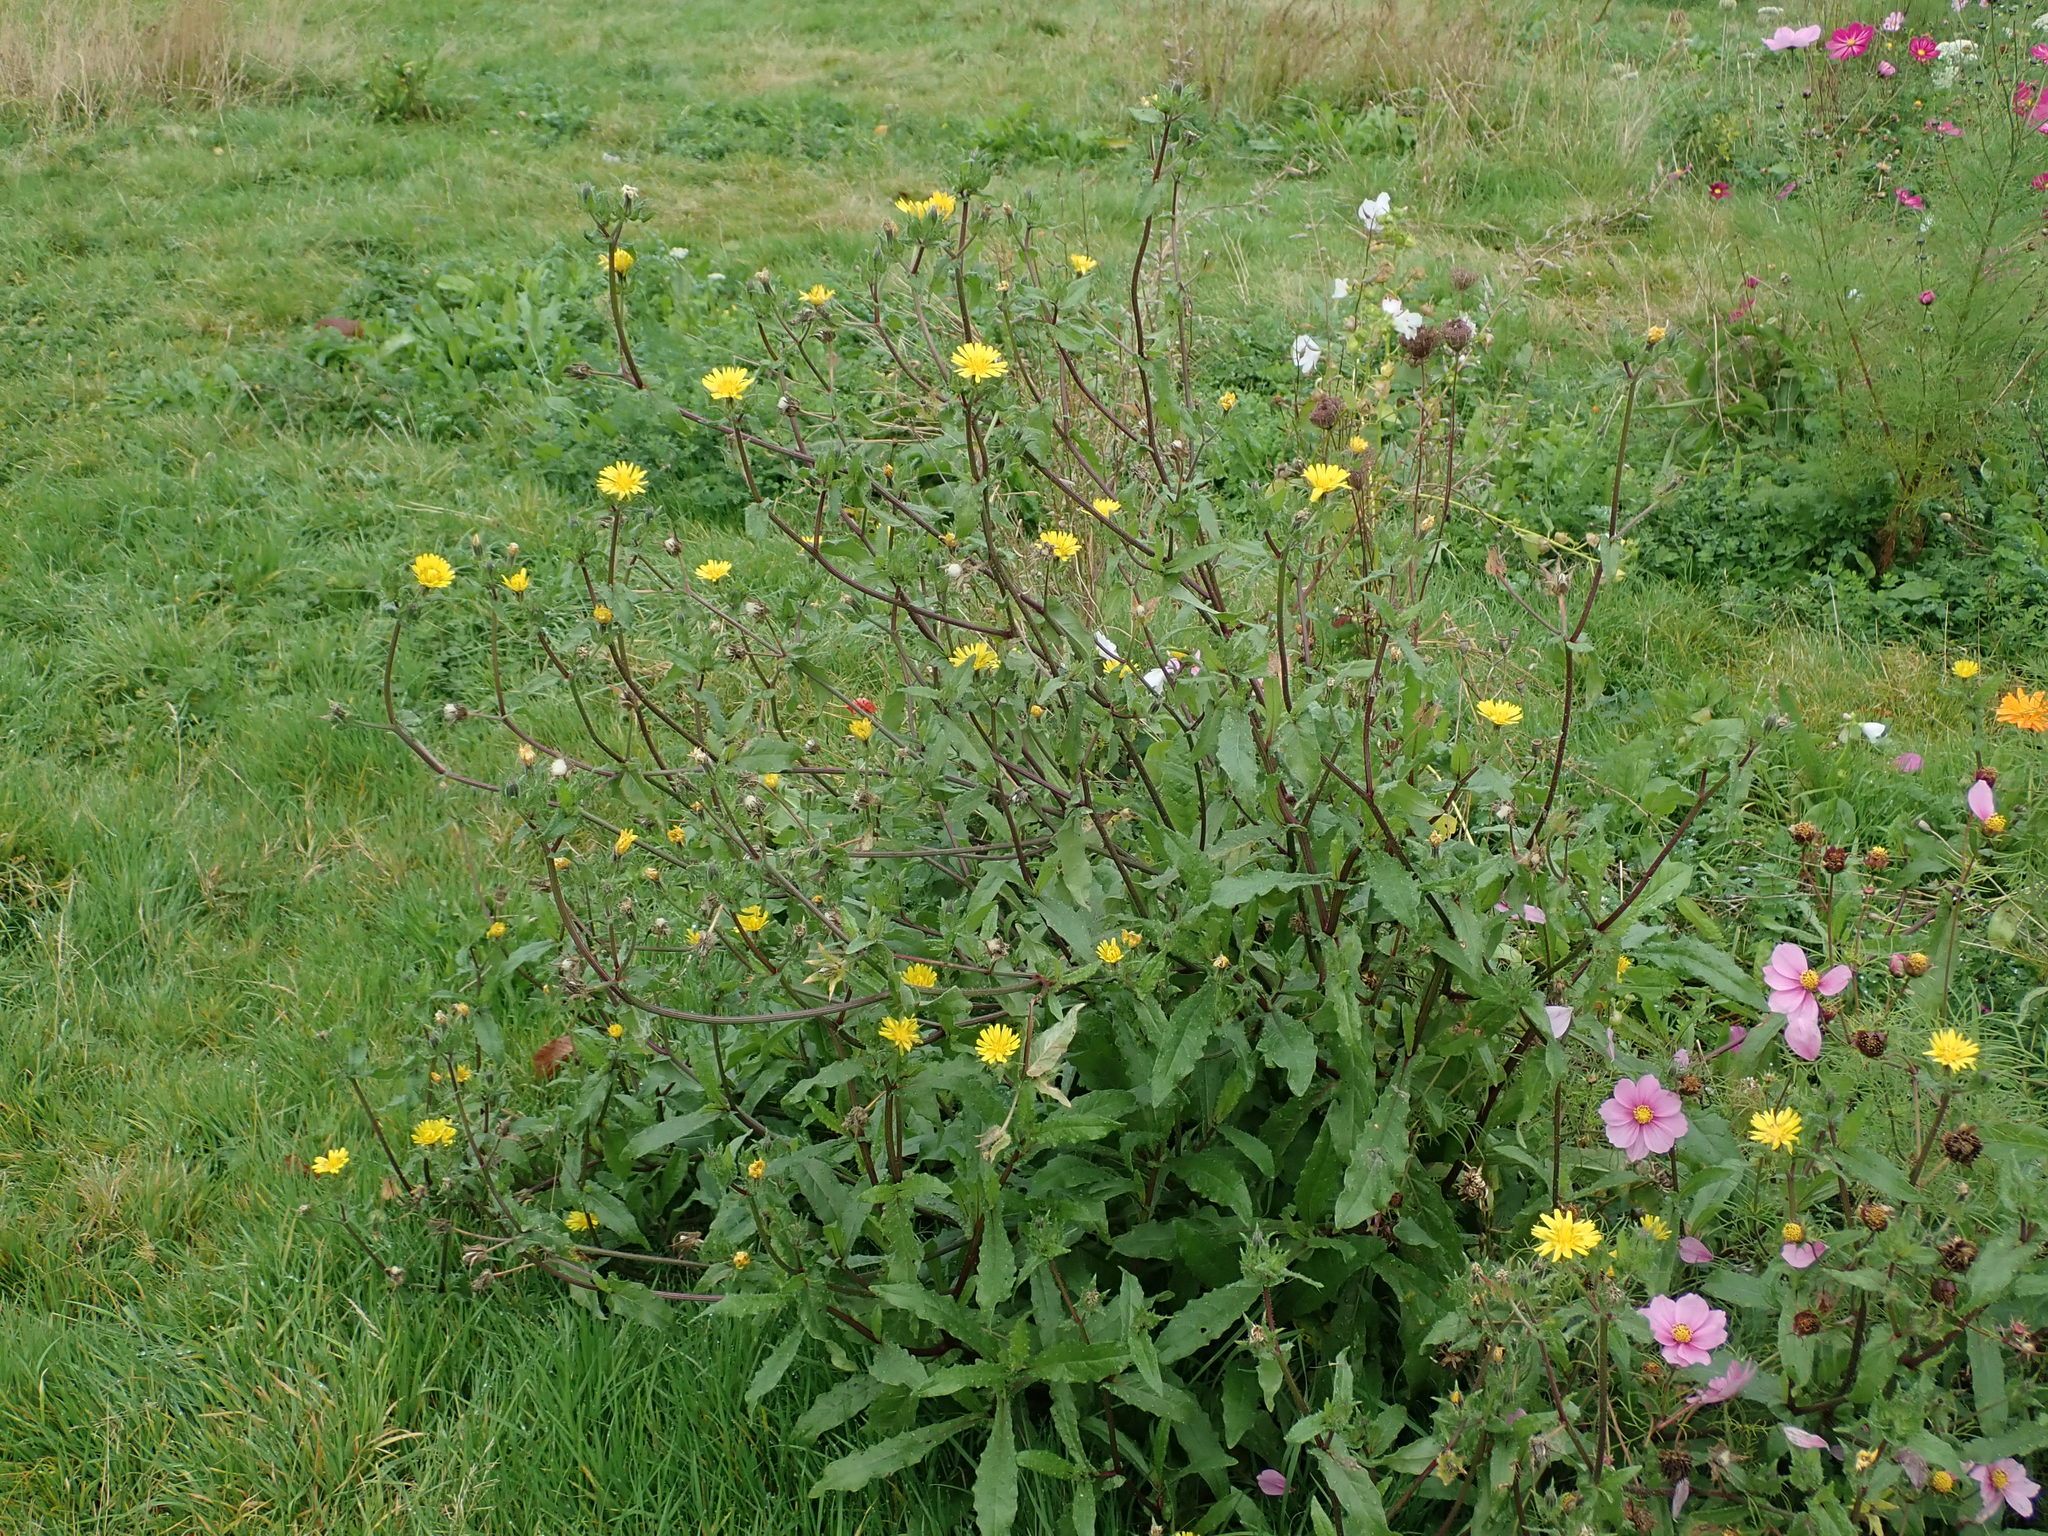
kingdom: Plantae
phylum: Tracheophyta
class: Magnoliopsida
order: Asterales
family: Asteraceae
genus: Helminthotheca
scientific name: Helminthotheca echioides
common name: Ox-tongue
